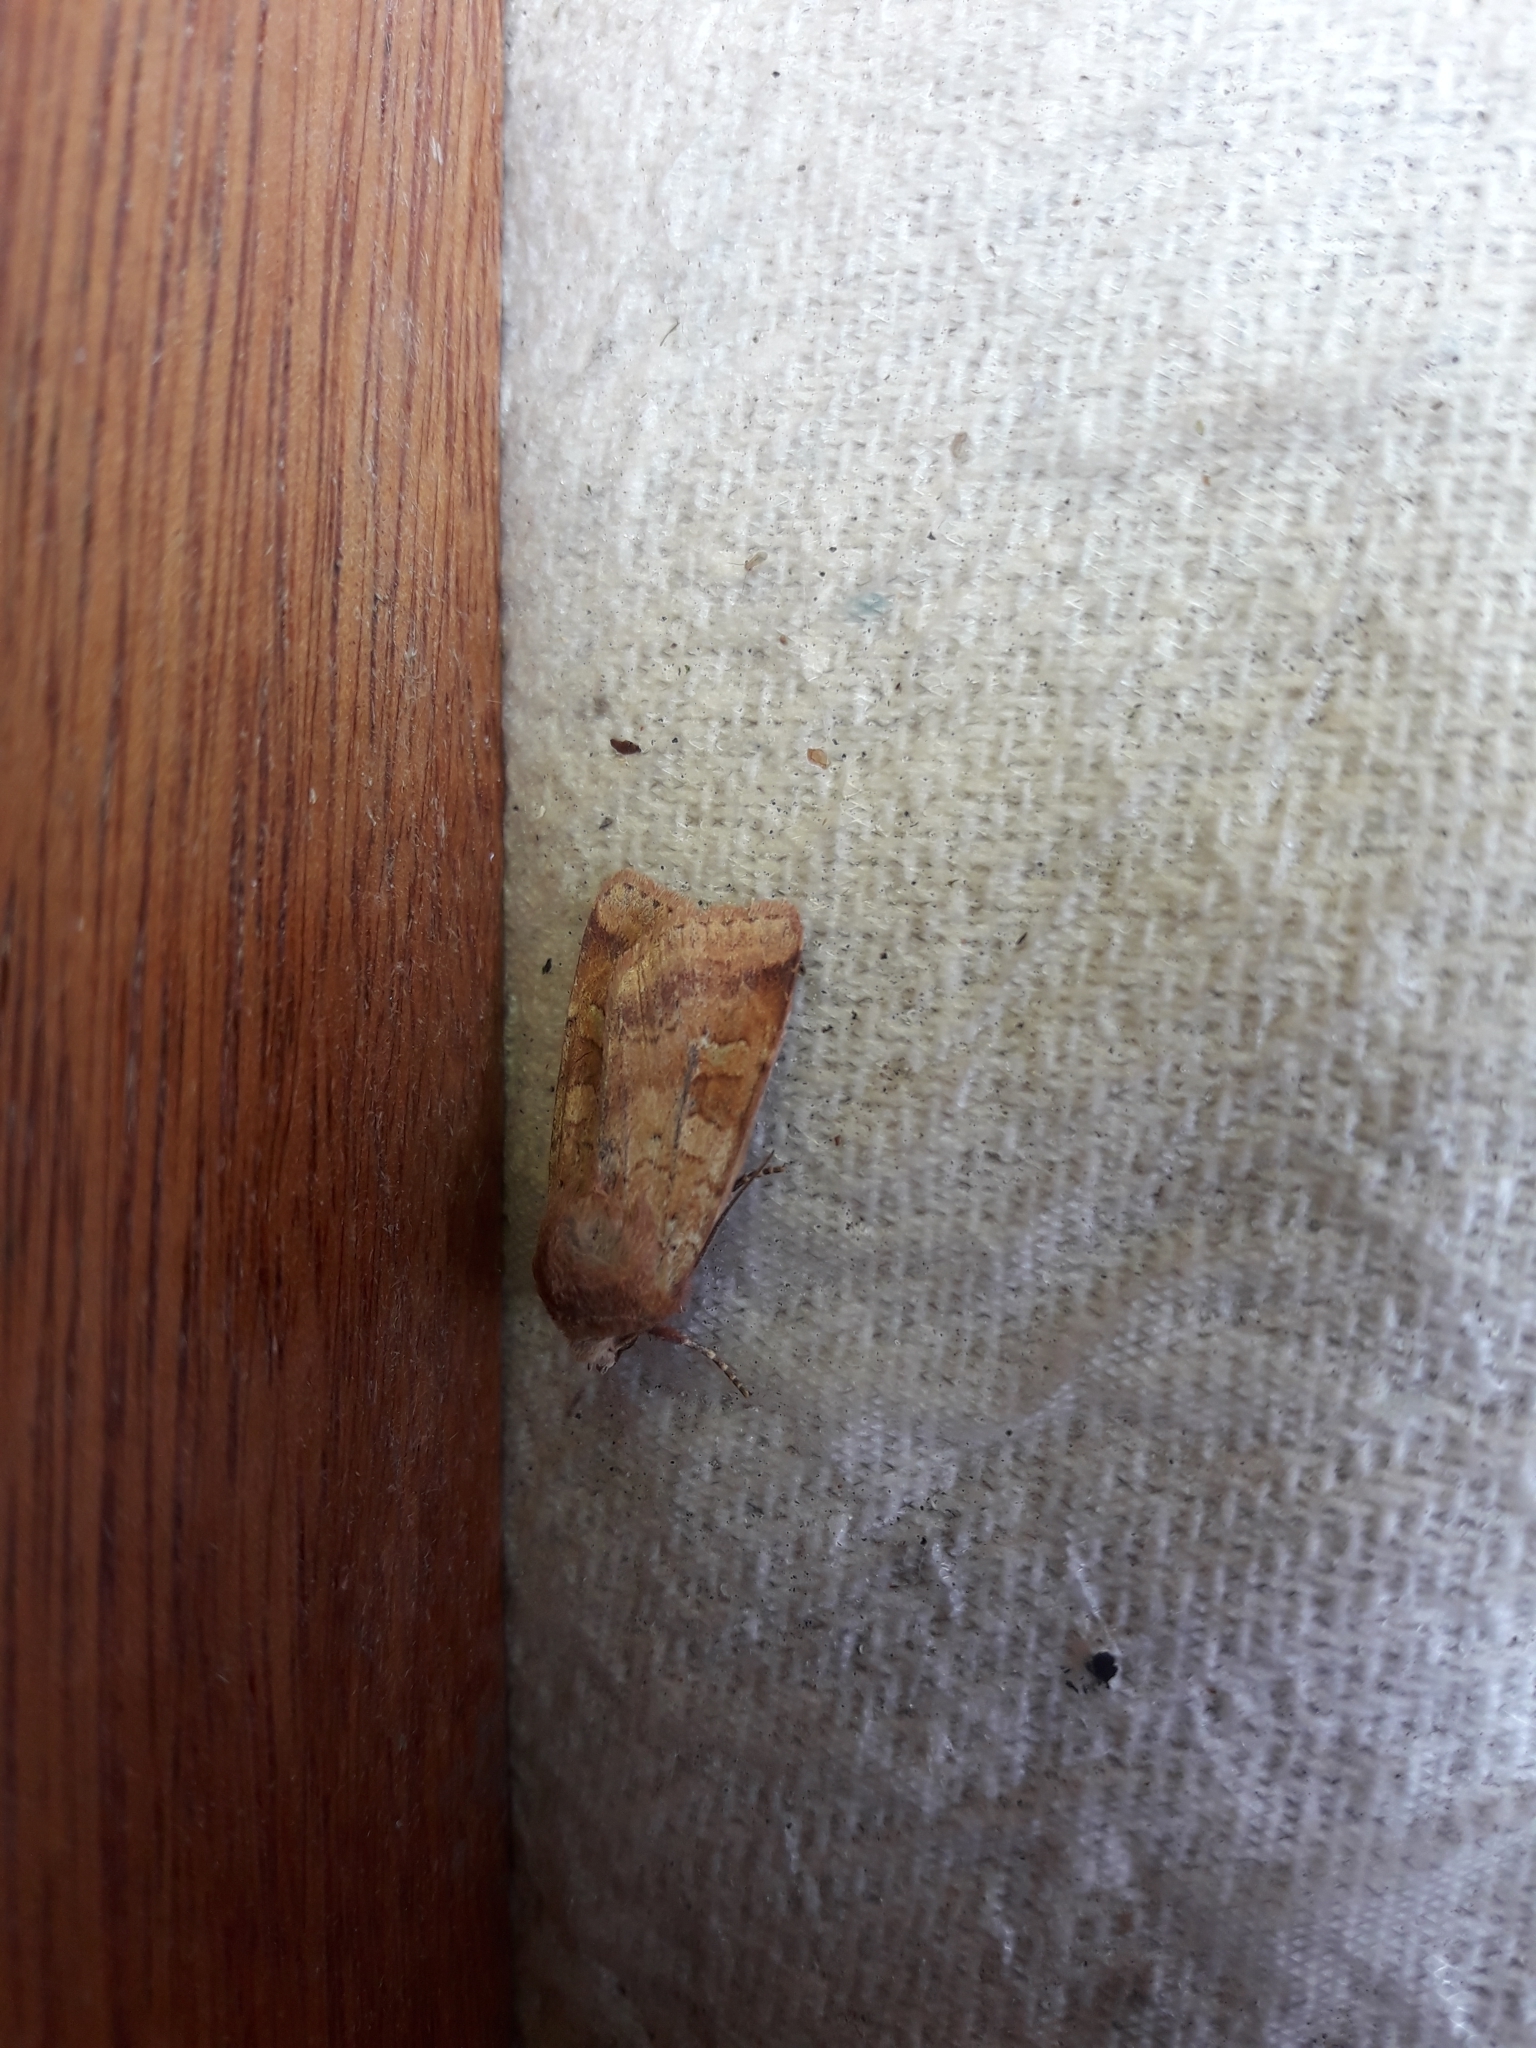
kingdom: Animalia
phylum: Arthropoda
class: Insecta
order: Lepidoptera
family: Noctuidae
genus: Diarsia
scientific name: Diarsia mendica
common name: Ingrailed clay
